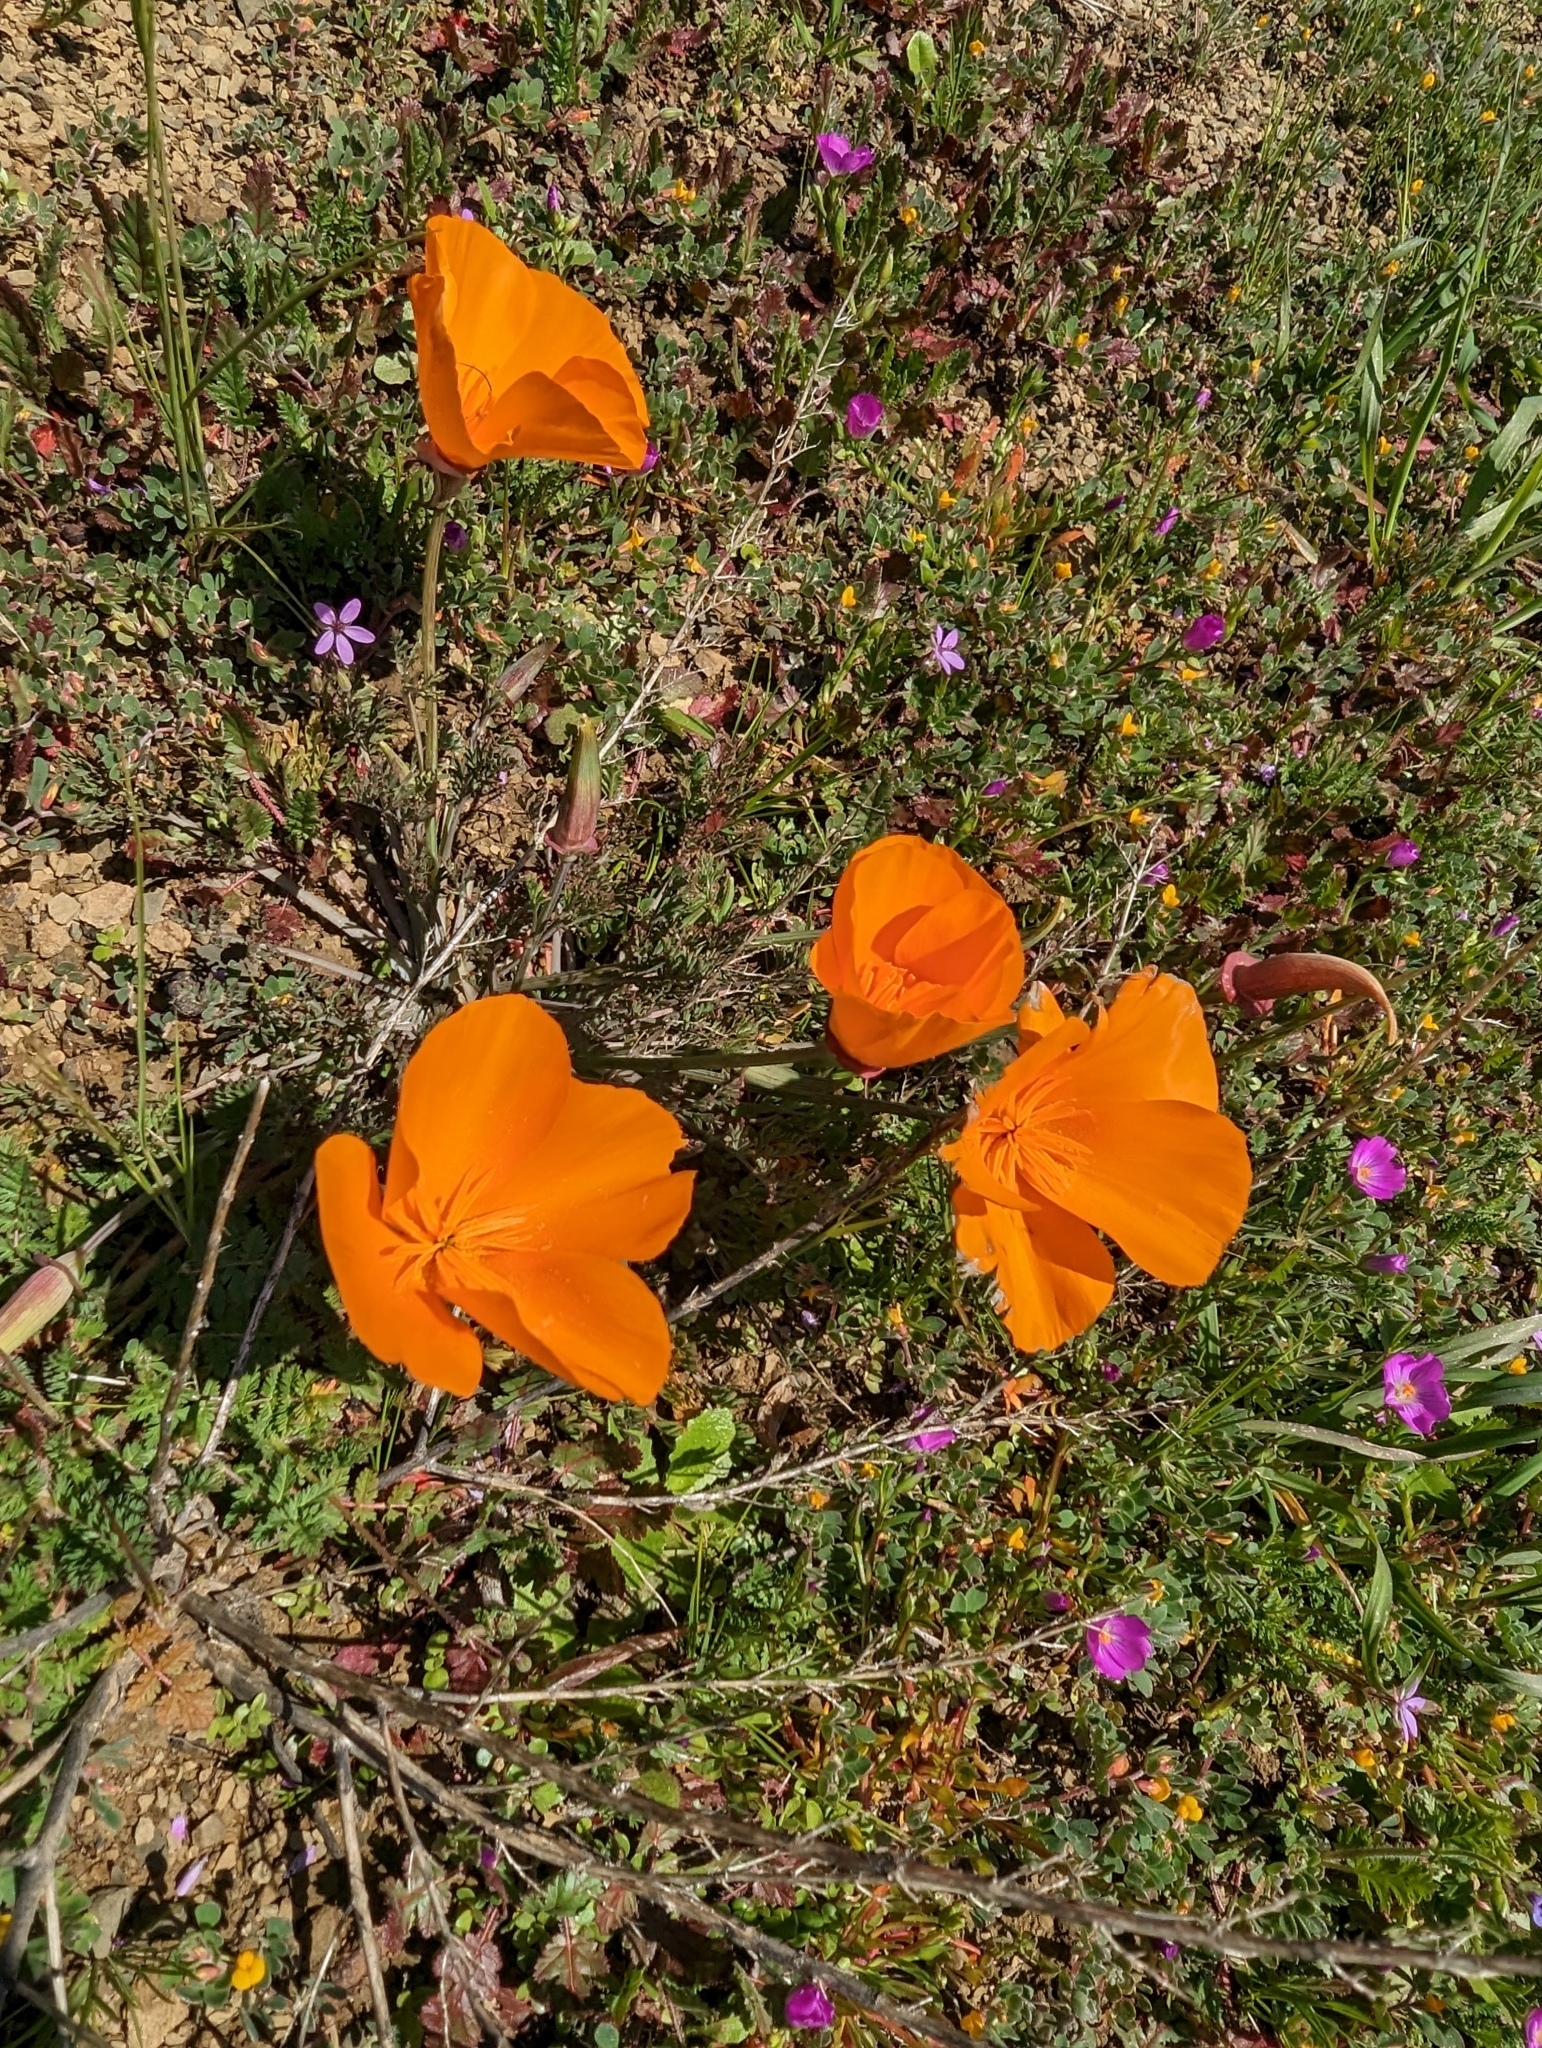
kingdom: Plantae
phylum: Tracheophyta
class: Magnoliopsida
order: Ranunculales
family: Papaveraceae
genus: Eschscholzia
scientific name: Eschscholzia californica
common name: California poppy
